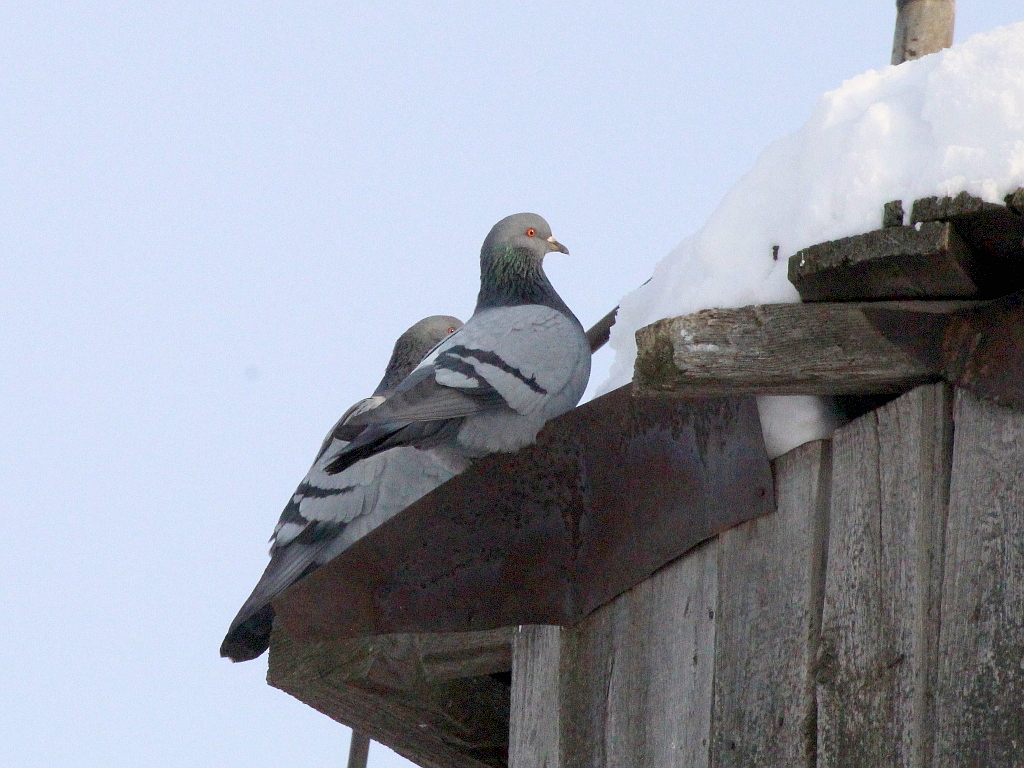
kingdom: Animalia
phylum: Chordata
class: Aves
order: Columbiformes
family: Columbidae
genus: Columba
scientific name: Columba livia
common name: Rock pigeon
